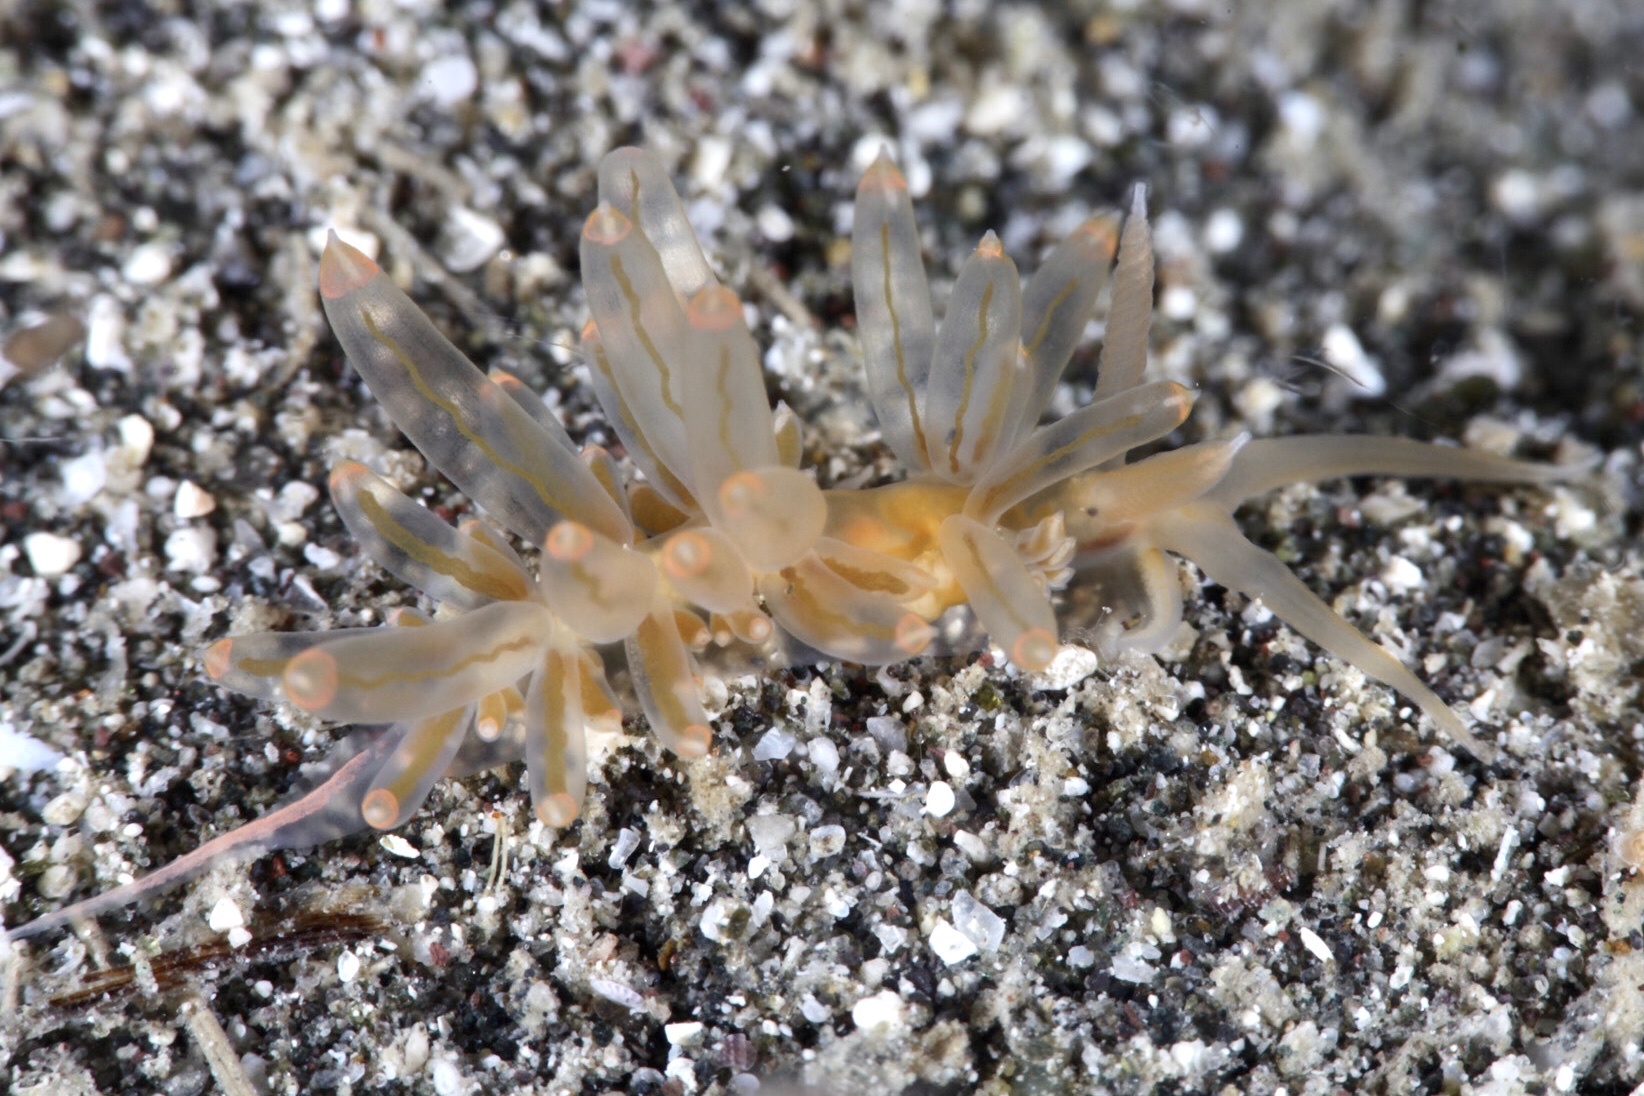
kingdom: Animalia
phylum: Mollusca
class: Gastropoda
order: Nudibranchia
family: Facelinidae
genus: Pruvotfolia
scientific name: Pruvotfolia rhodopos
